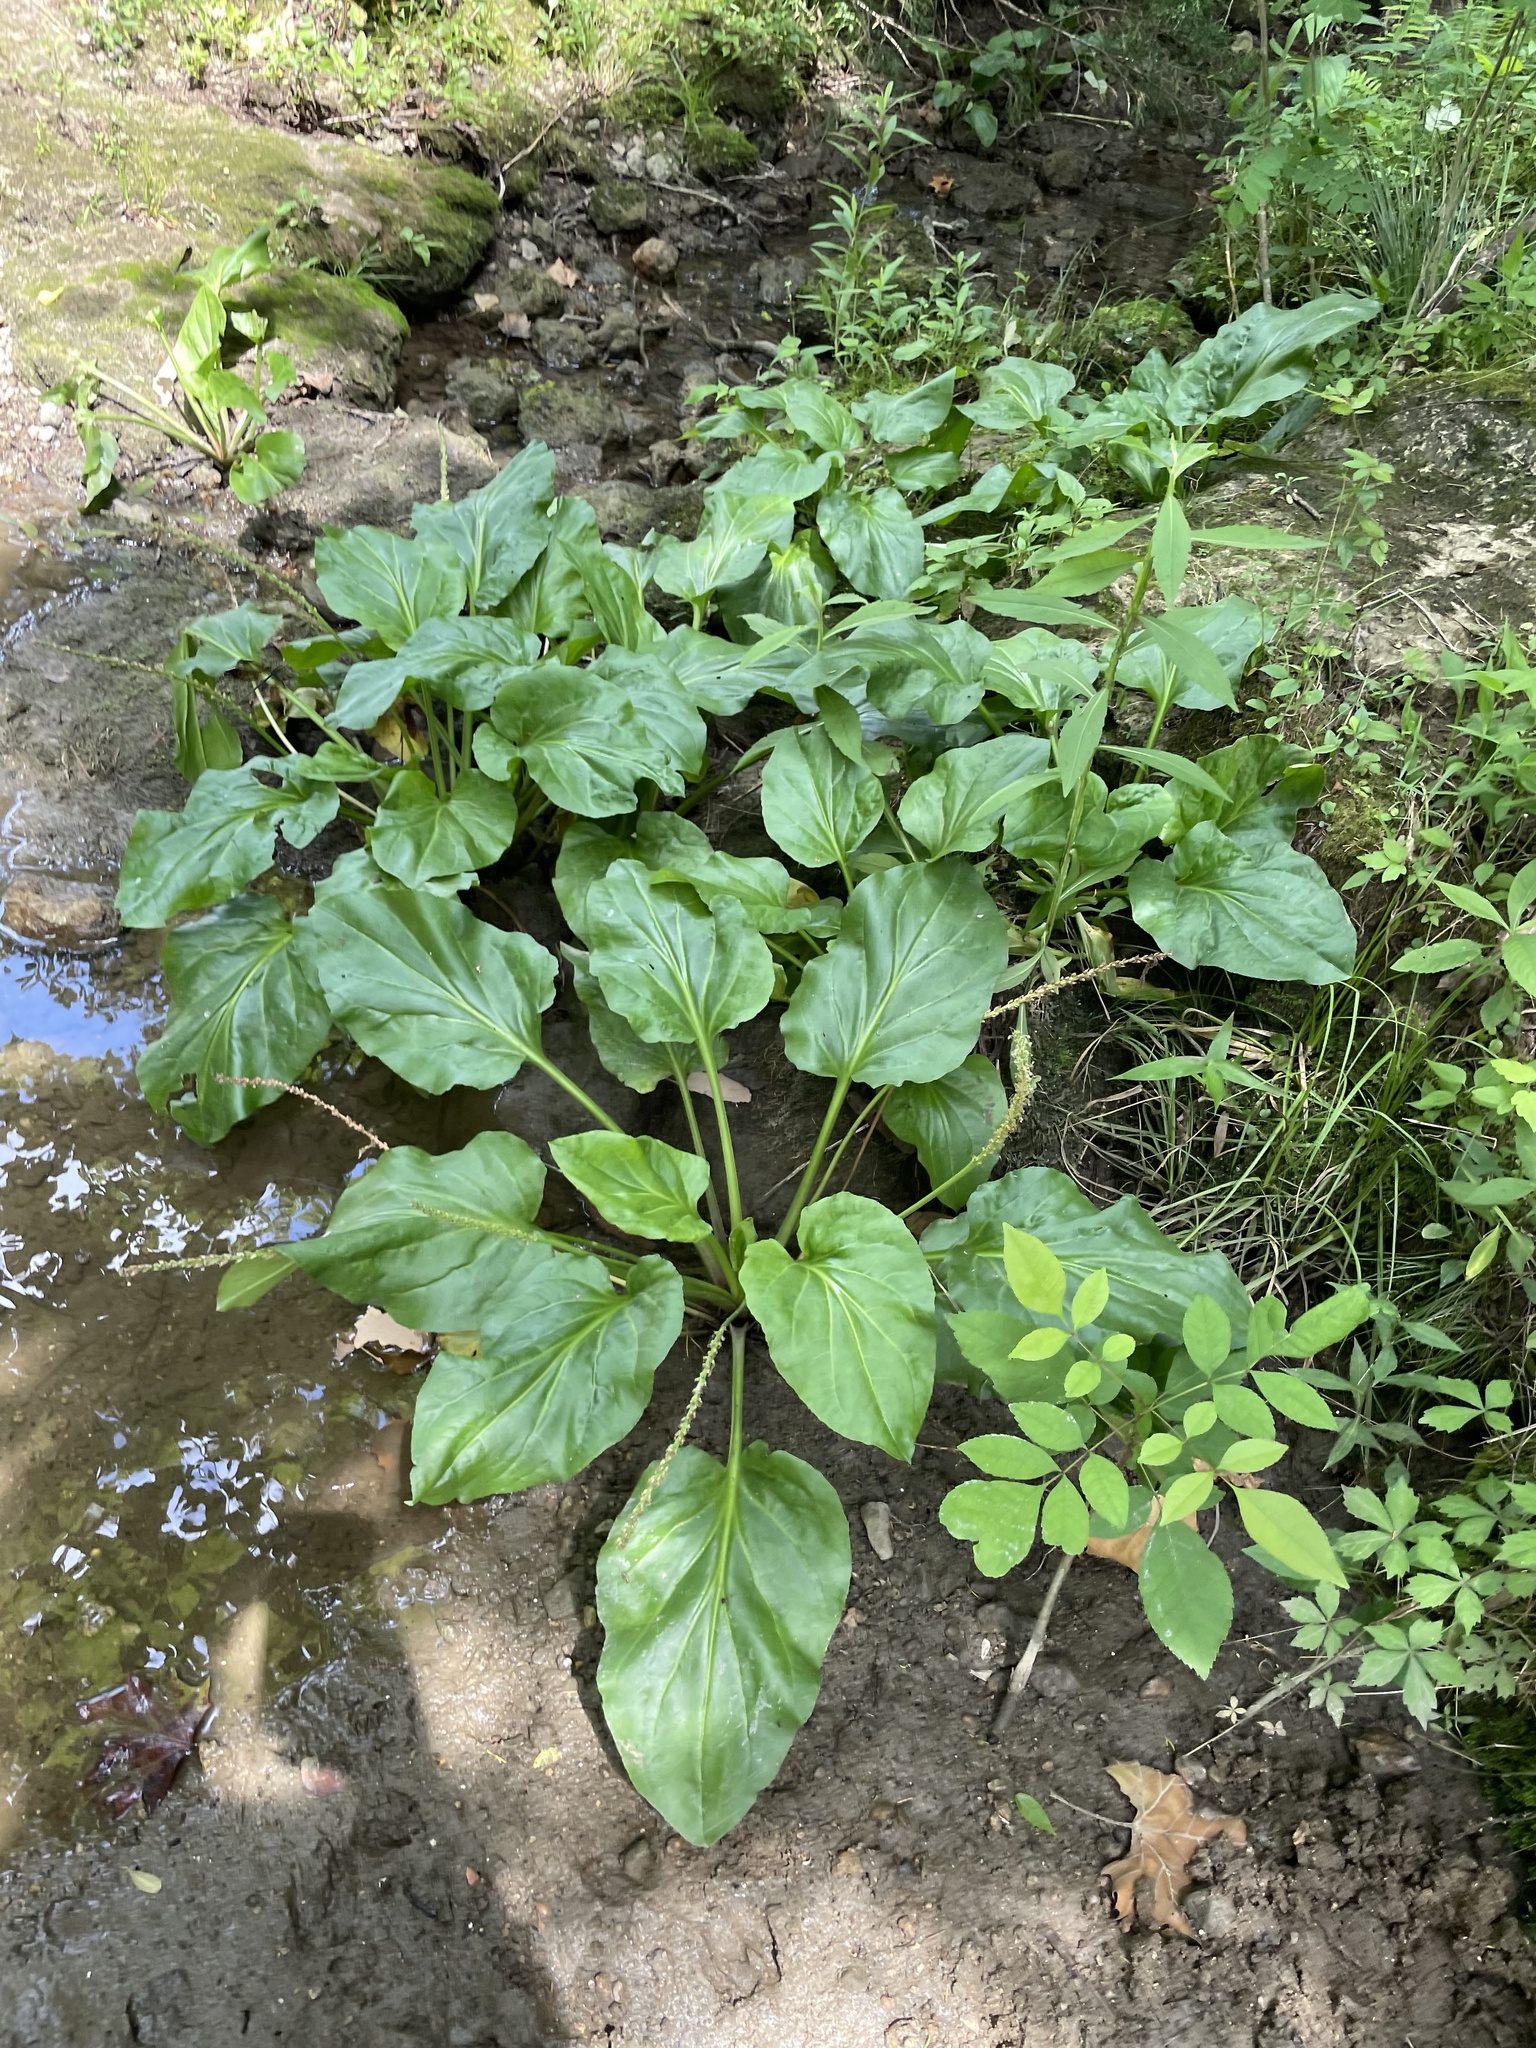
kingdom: Plantae
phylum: Tracheophyta
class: Magnoliopsida
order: Lamiales
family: Plantaginaceae
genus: Plantago
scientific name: Plantago cordata
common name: Kingroot
